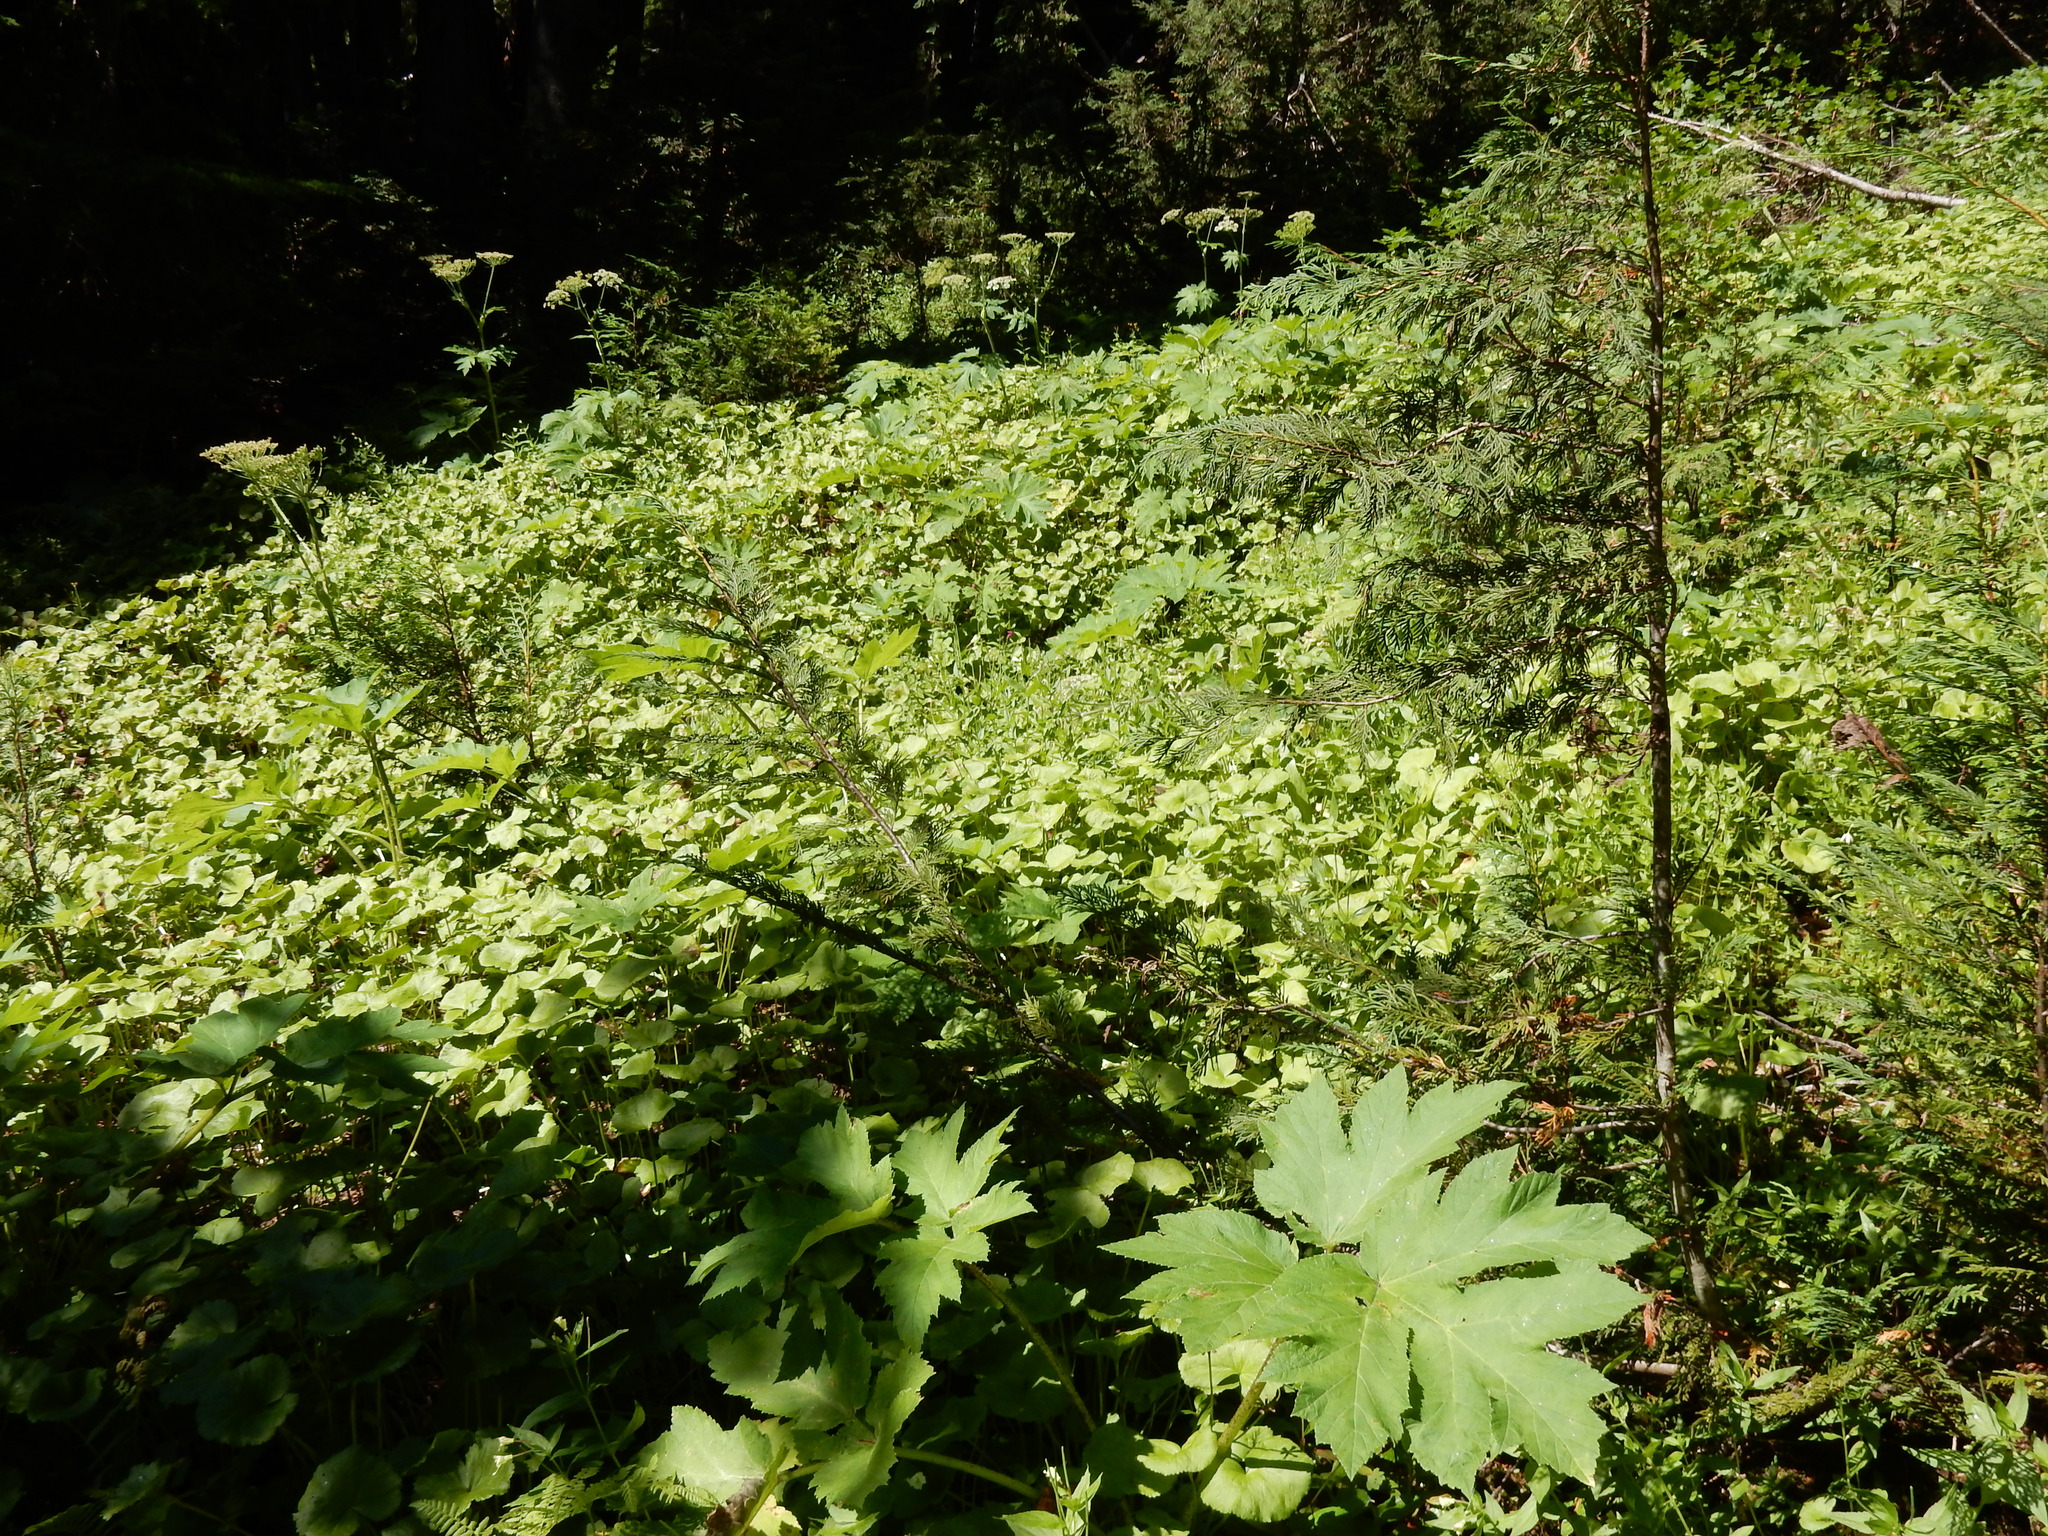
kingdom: Plantae
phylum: Tracheophyta
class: Magnoliopsida
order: Apiales
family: Apiaceae
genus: Heracleum
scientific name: Heracleum maximum
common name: American cow parsnip
